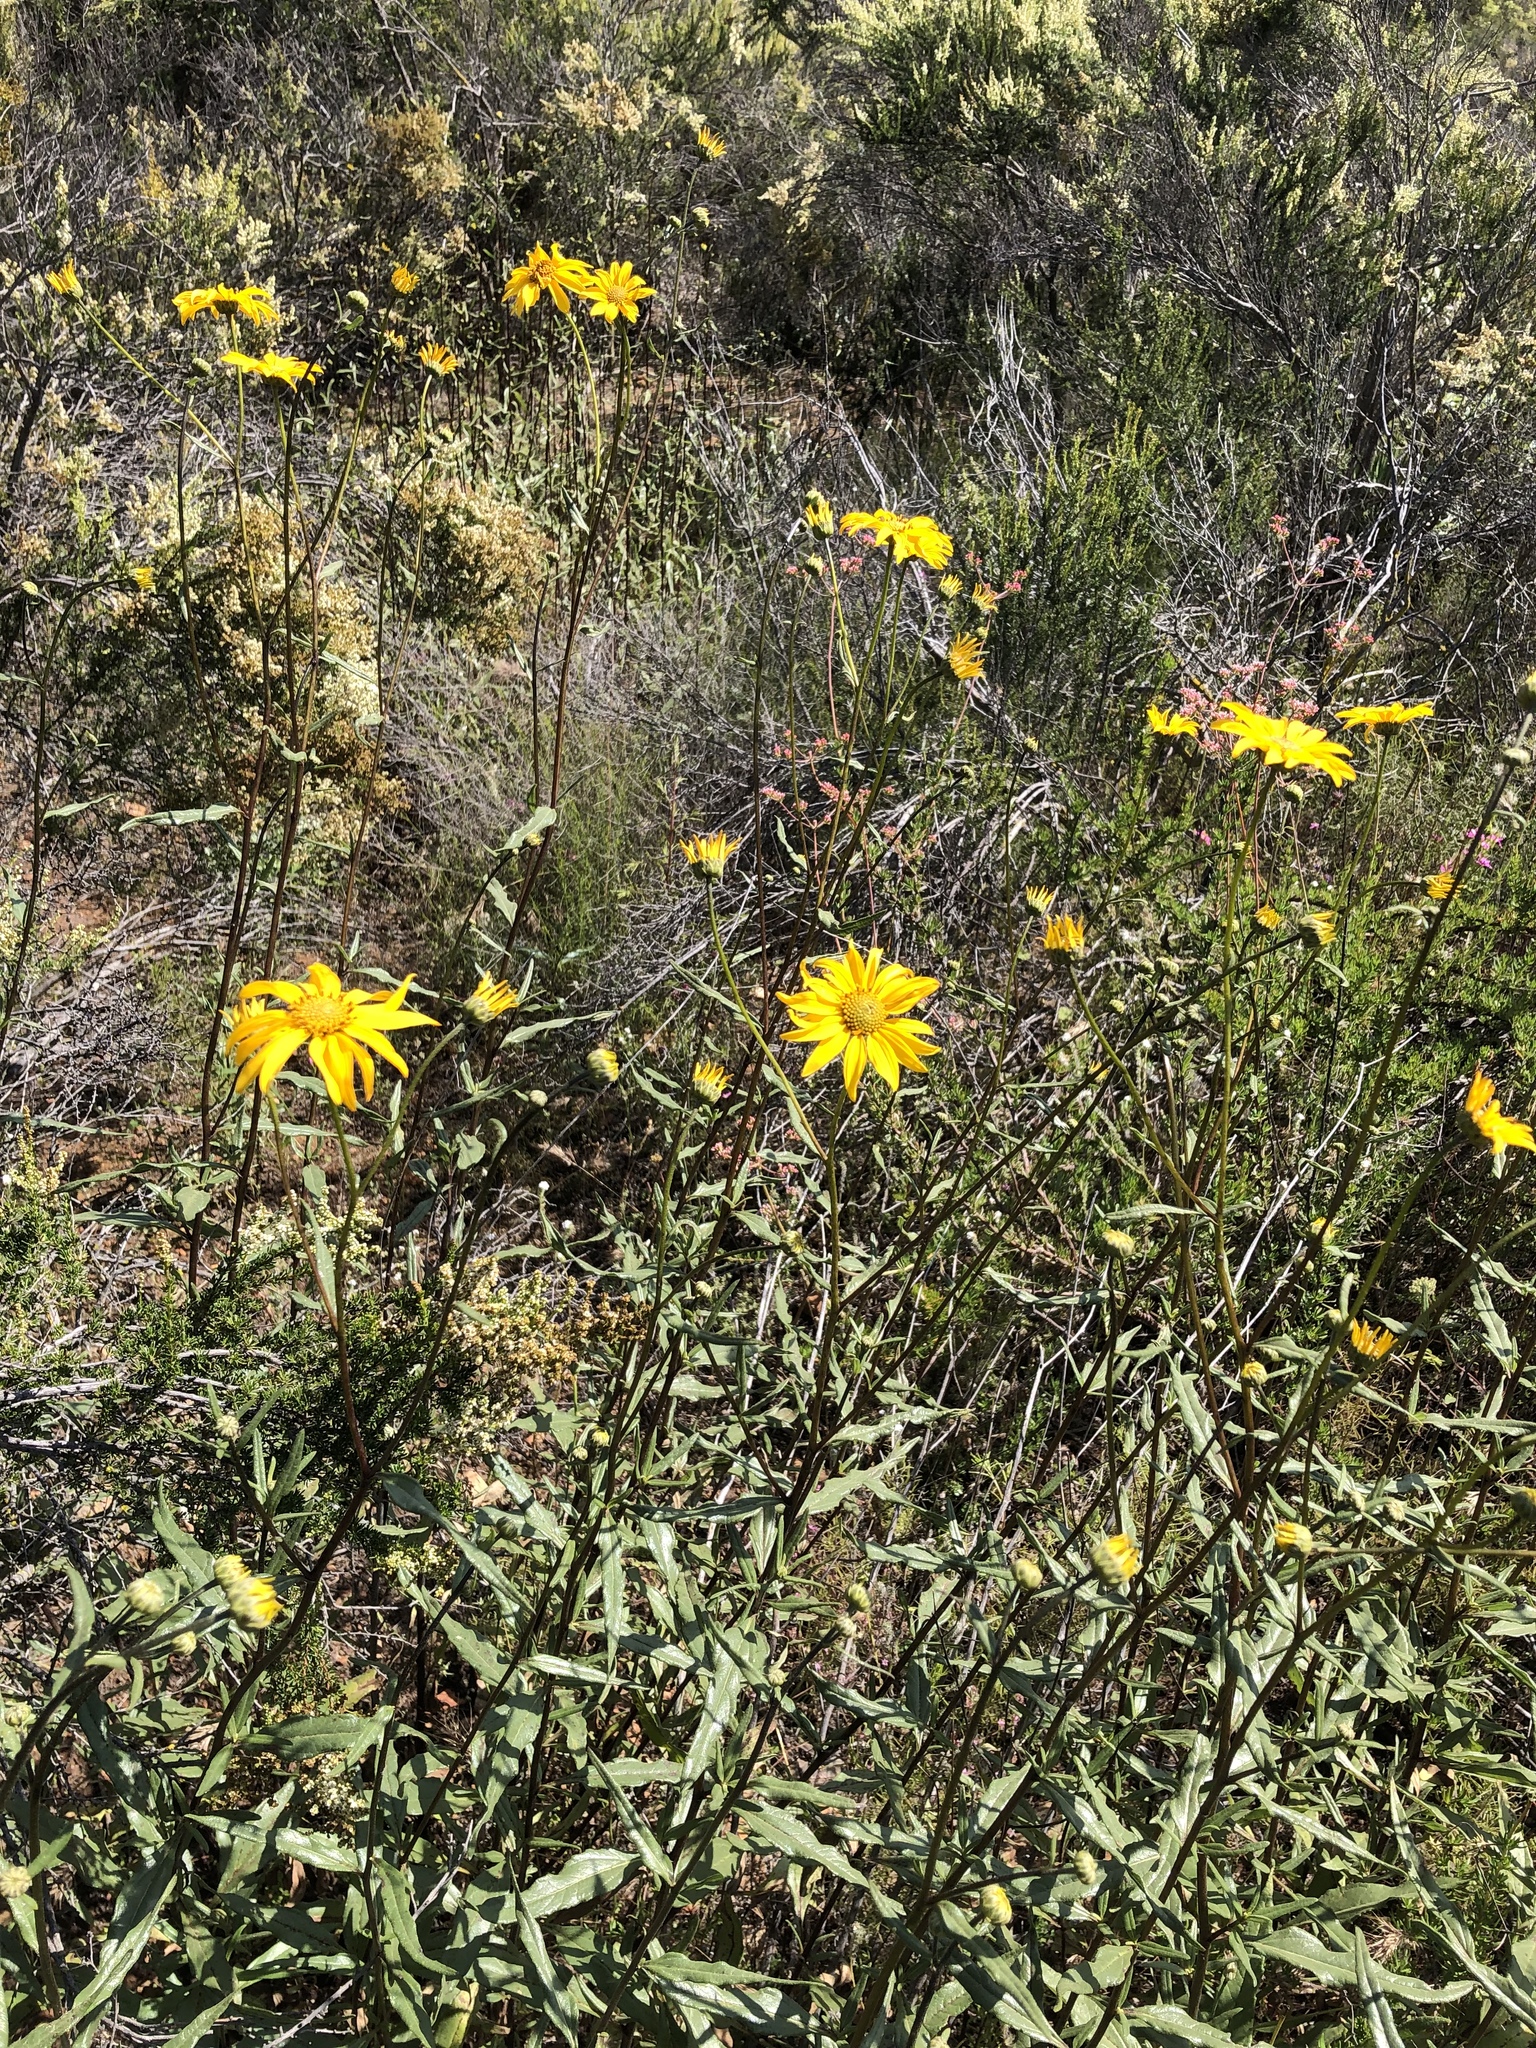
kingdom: Plantae
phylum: Tracheophyta
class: Magnoliopsida
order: Asterales
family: Asteraceae
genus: Helianthus
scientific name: Helianthus gracilentus
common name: Slender sunflower
